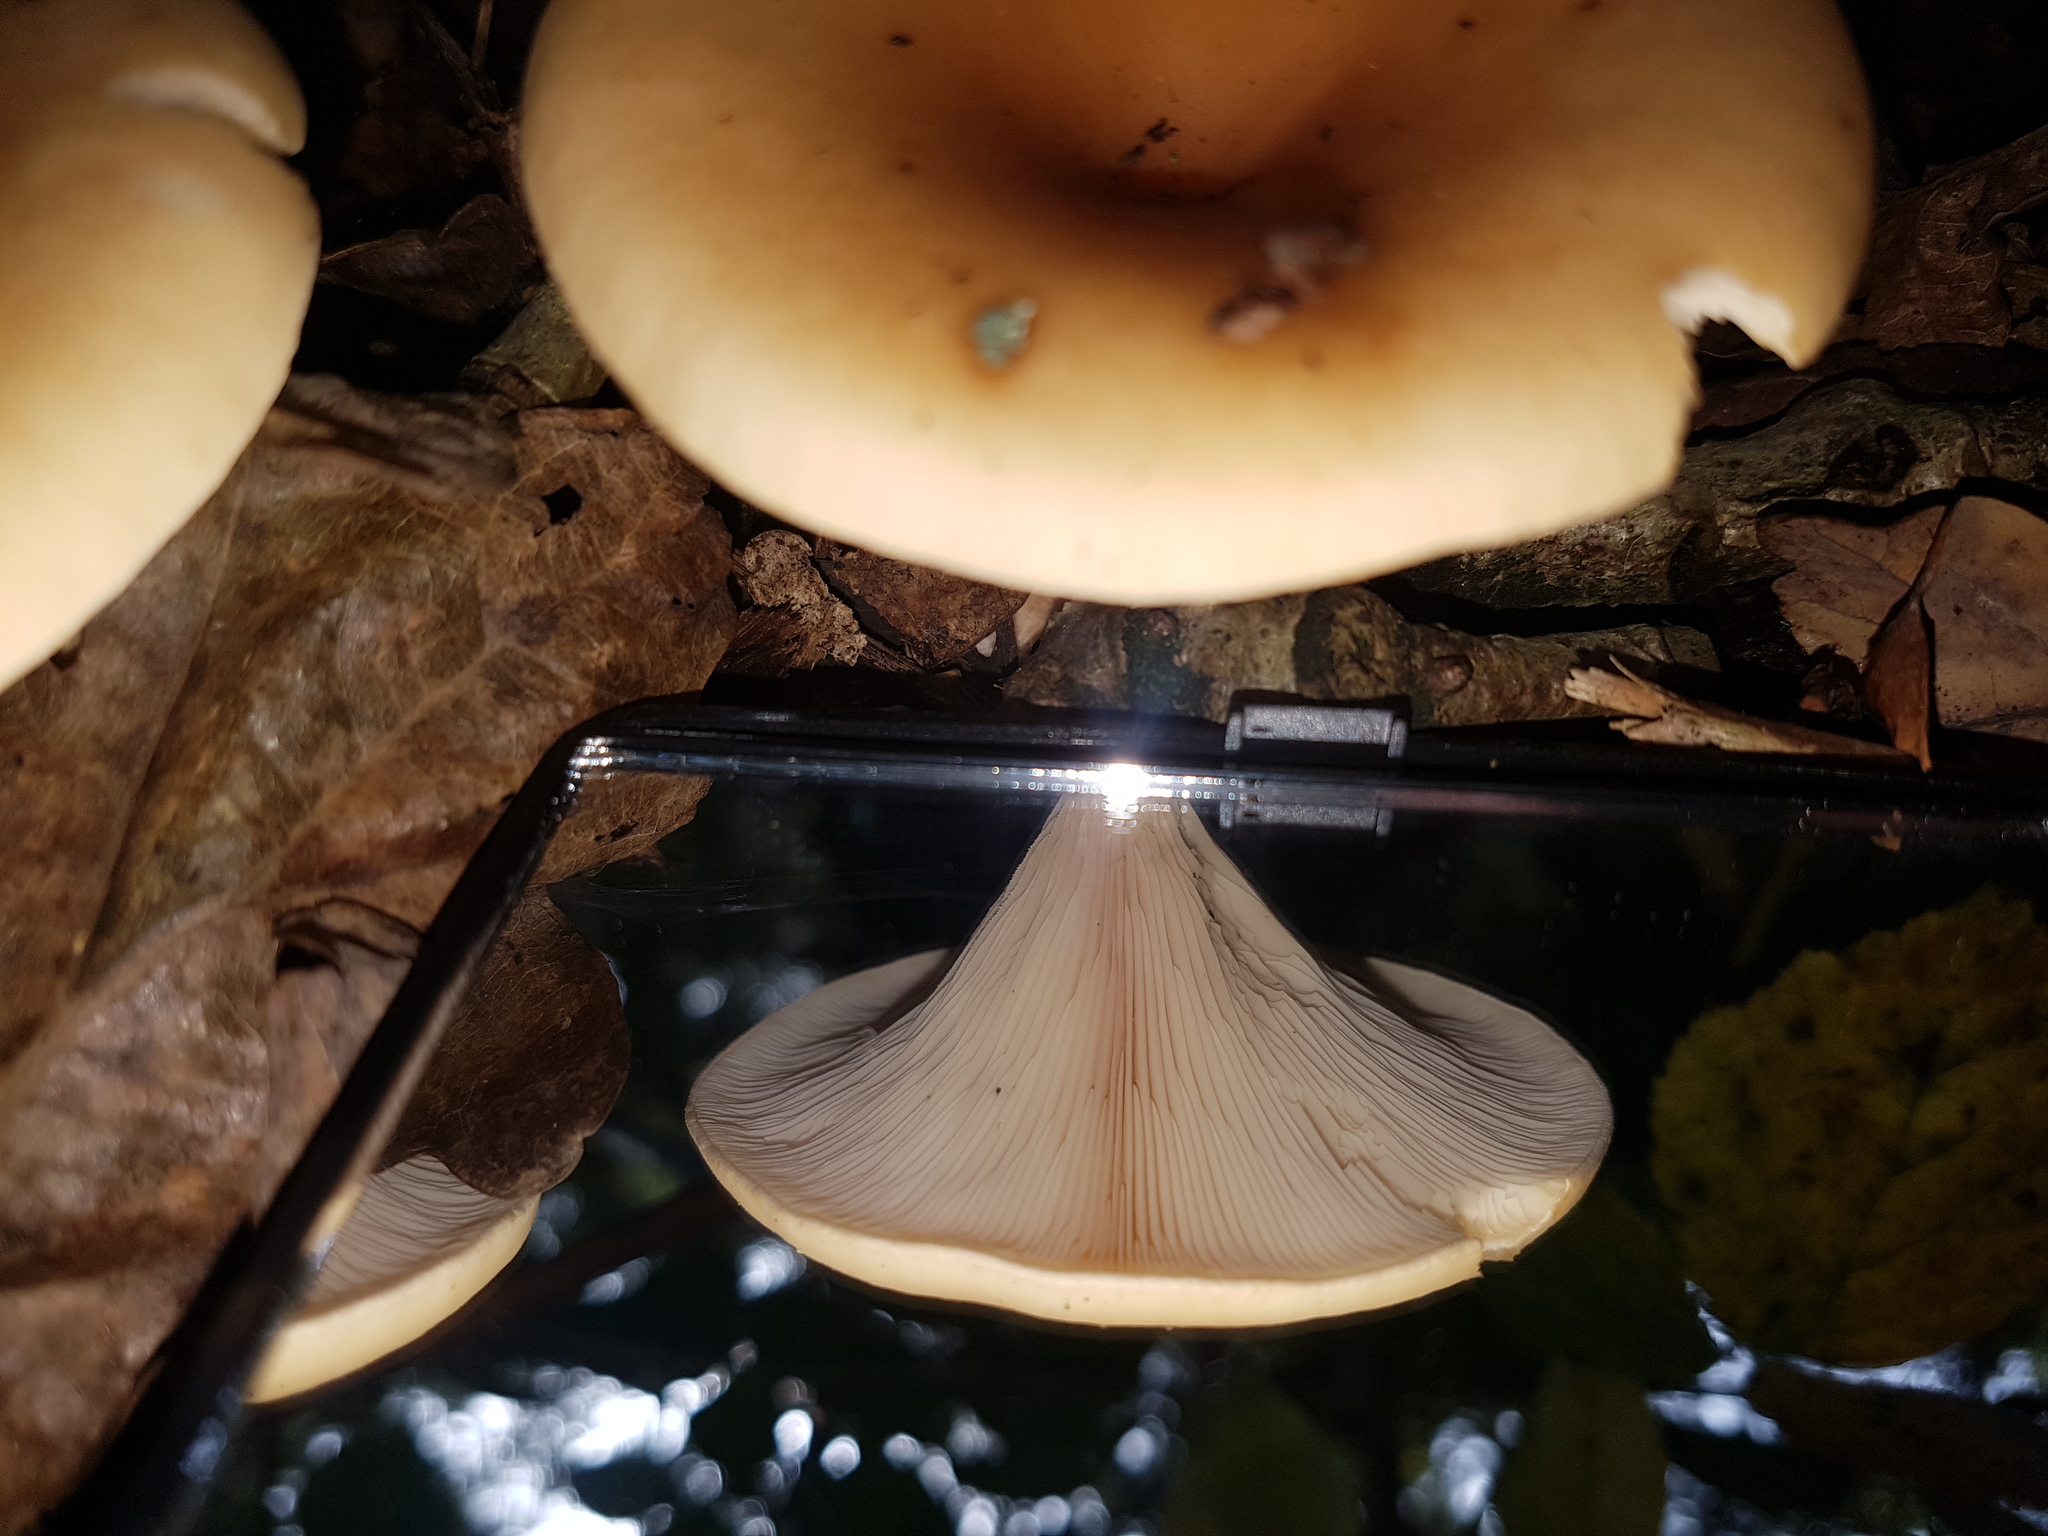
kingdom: Fungi
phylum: Basidiomycota
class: Agaricomycetes
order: Agaricales
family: Tricholomataceae
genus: Paralepista
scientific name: Paralepista flaccida
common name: Tawny funnel cap
